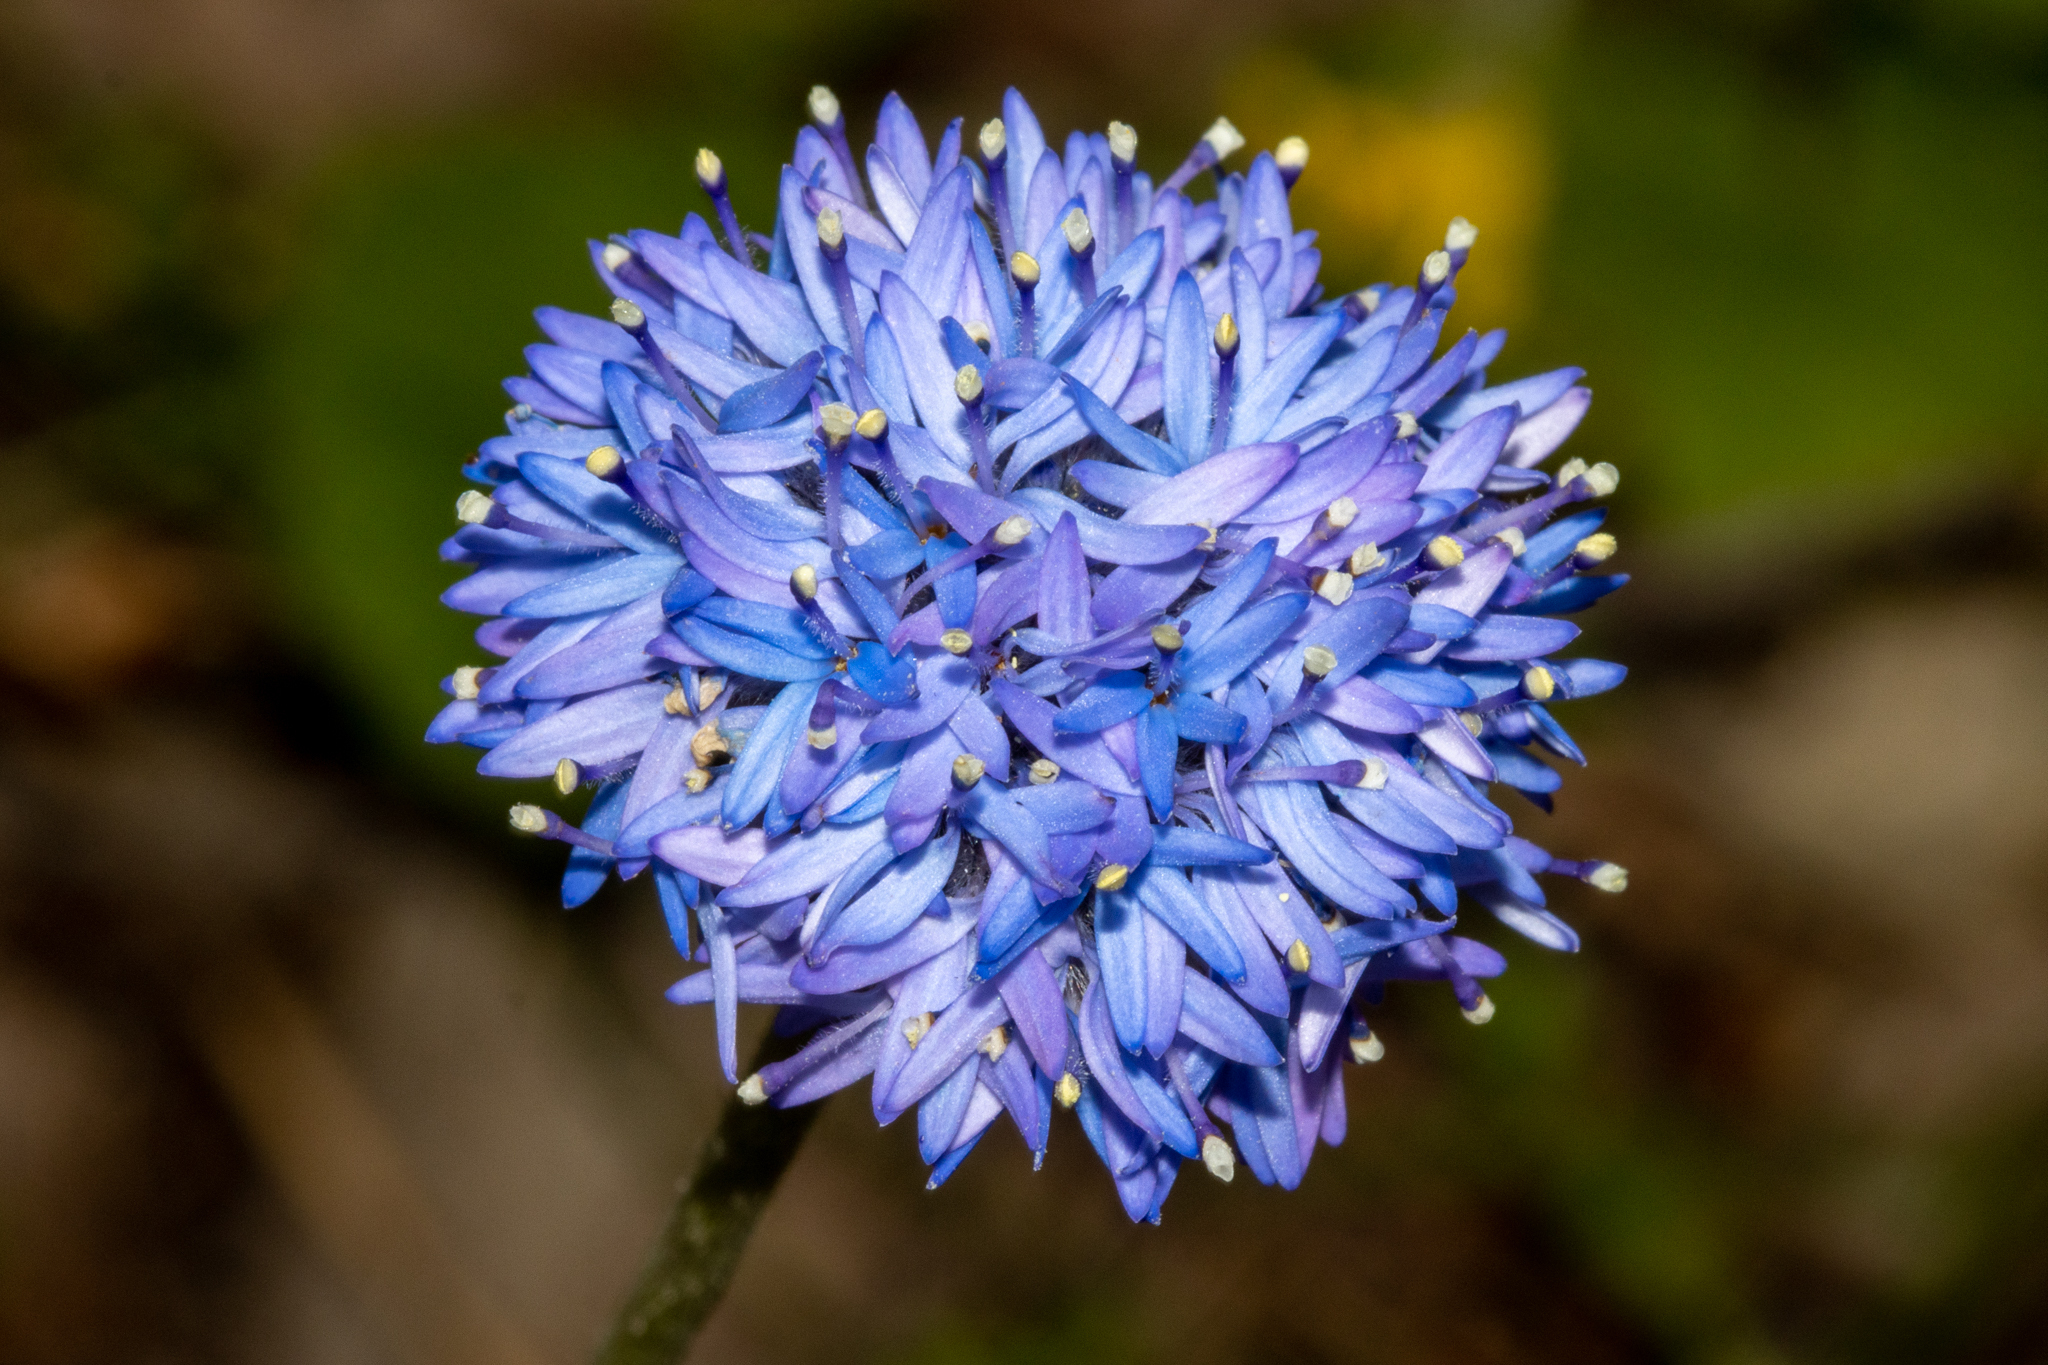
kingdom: Plantae
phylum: Tracheophyta
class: Magnoliopsida
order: Asterales
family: Goodeniaceae
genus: Brunonia
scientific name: Brunonia australis
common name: Blue pincushion
